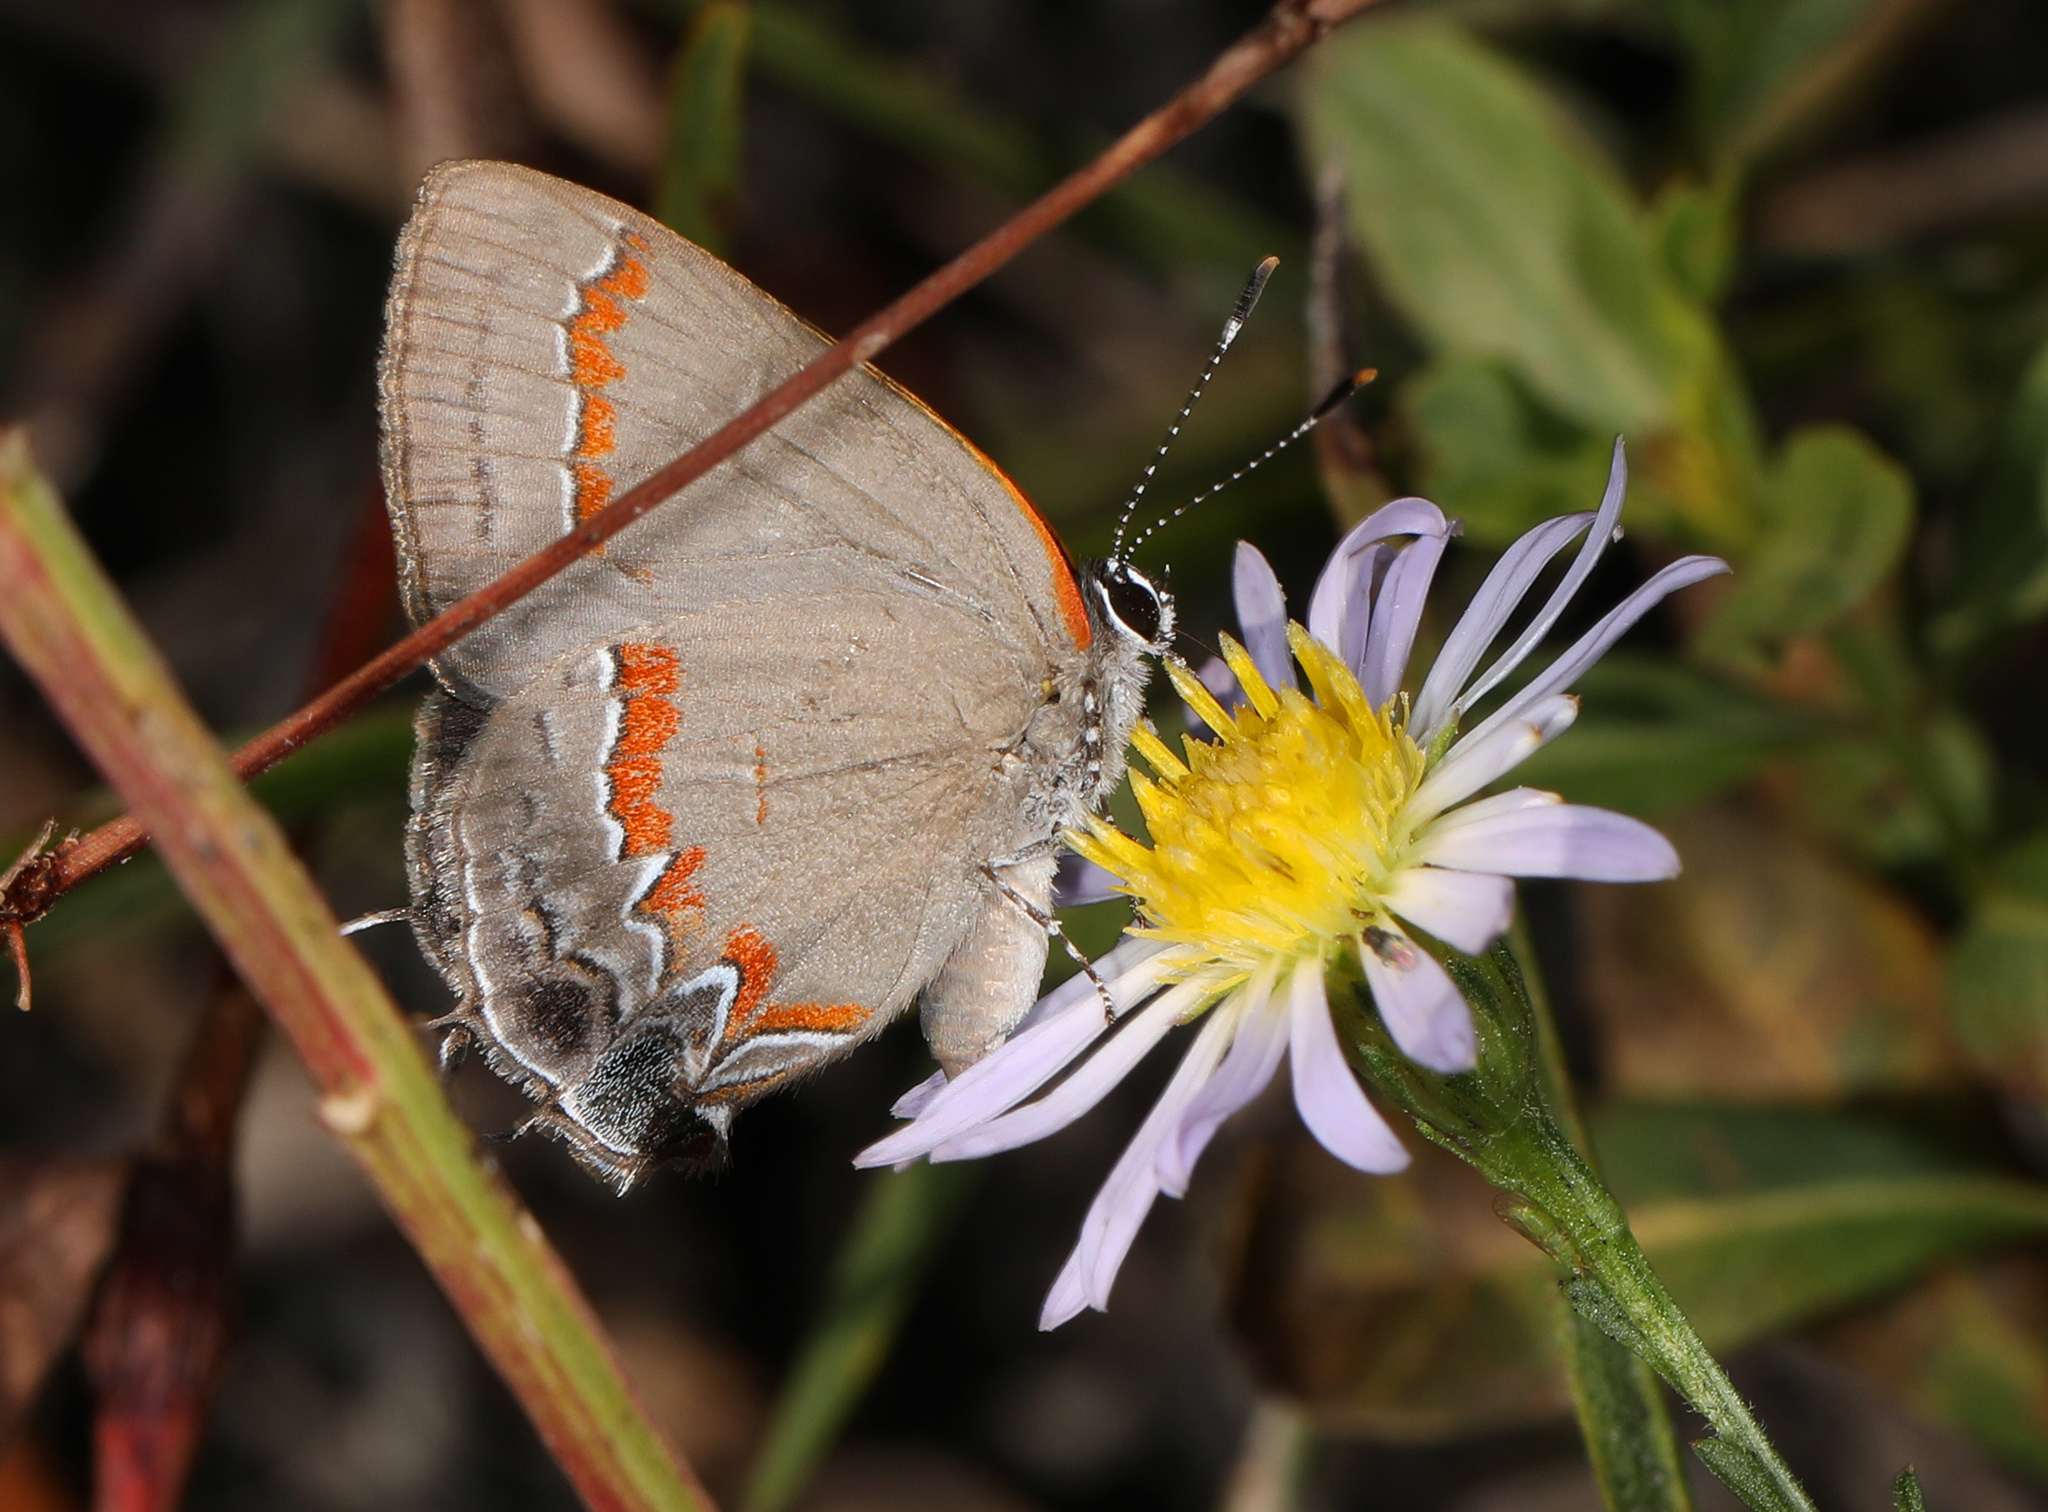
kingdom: Animalia
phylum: Arthropoda
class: Insecta
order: Lepidoptera
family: Lycaenidae
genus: Calycopis
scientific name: Calycopis cecrops
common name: Red-banded hairstreak
